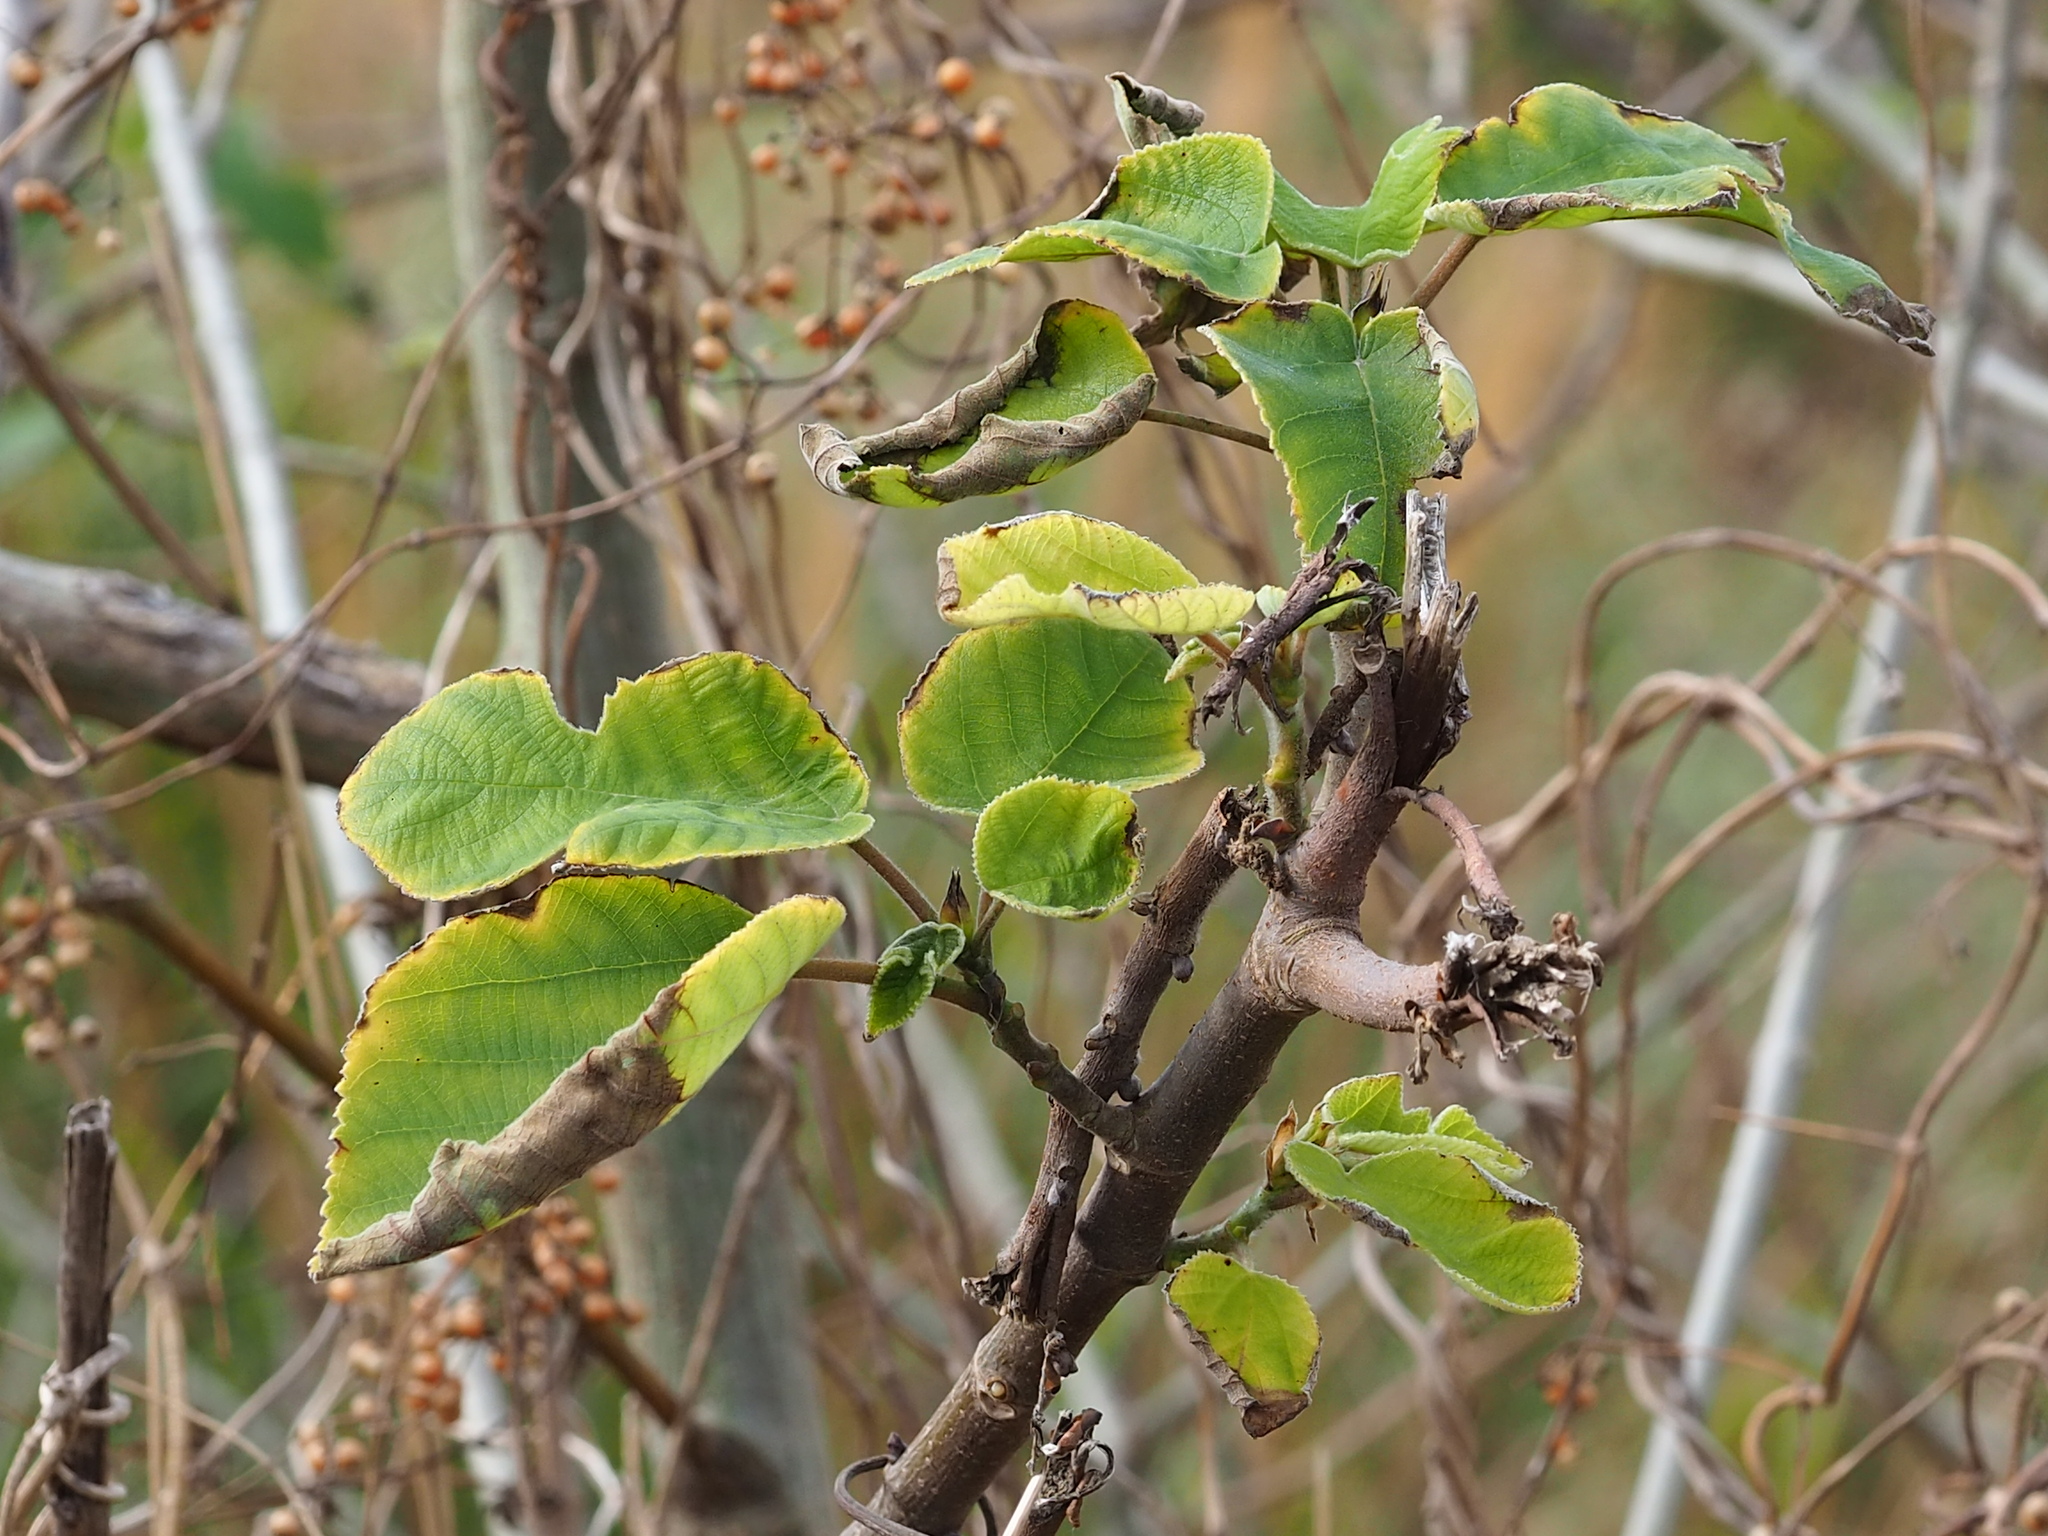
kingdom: Plantae
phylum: Tracheophyta
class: Magnoliopsida
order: Rosales
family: Moraceae
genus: Broussonetia
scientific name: Broussonetia papyrifera
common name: Paper mulberry
